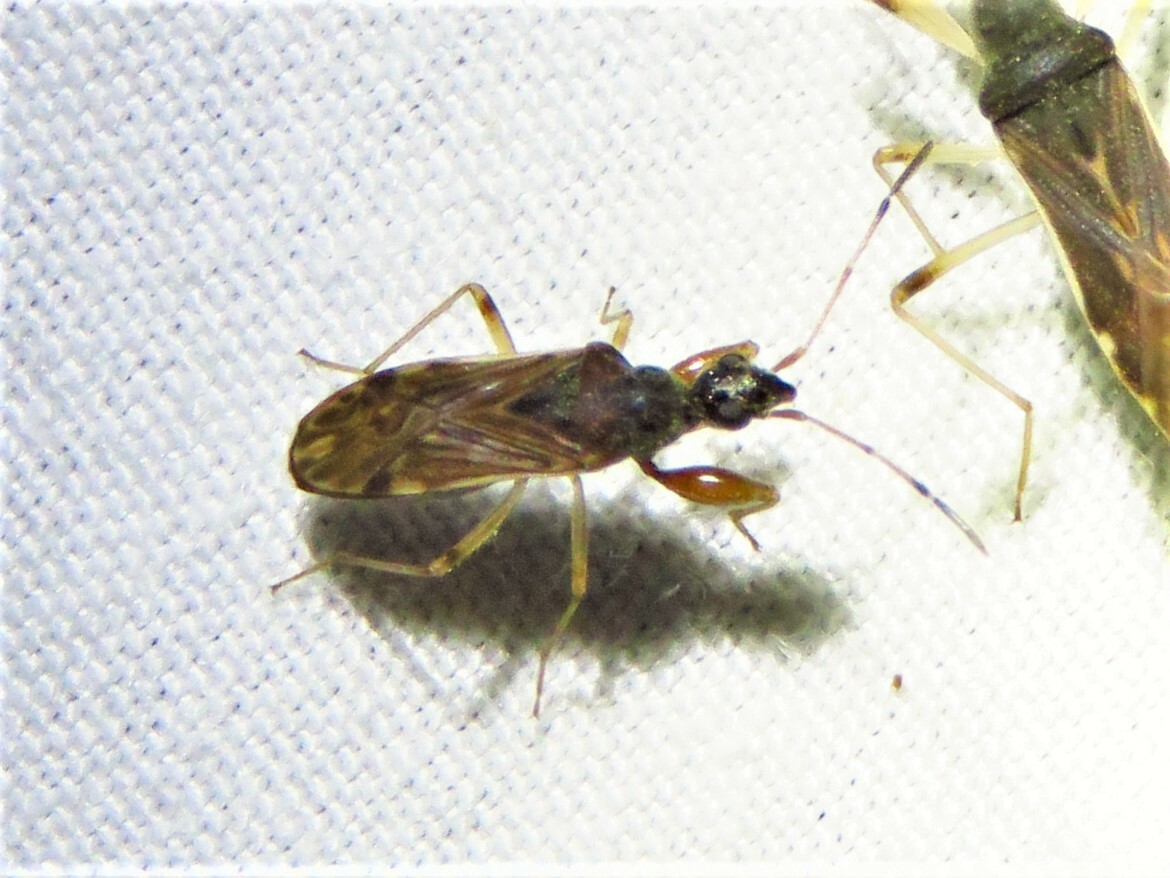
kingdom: Animalia
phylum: Arthropoda
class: Insecta
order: Hemiptera
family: Rhyparochromidae
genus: Heraeus
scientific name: Heraeus plebejus
